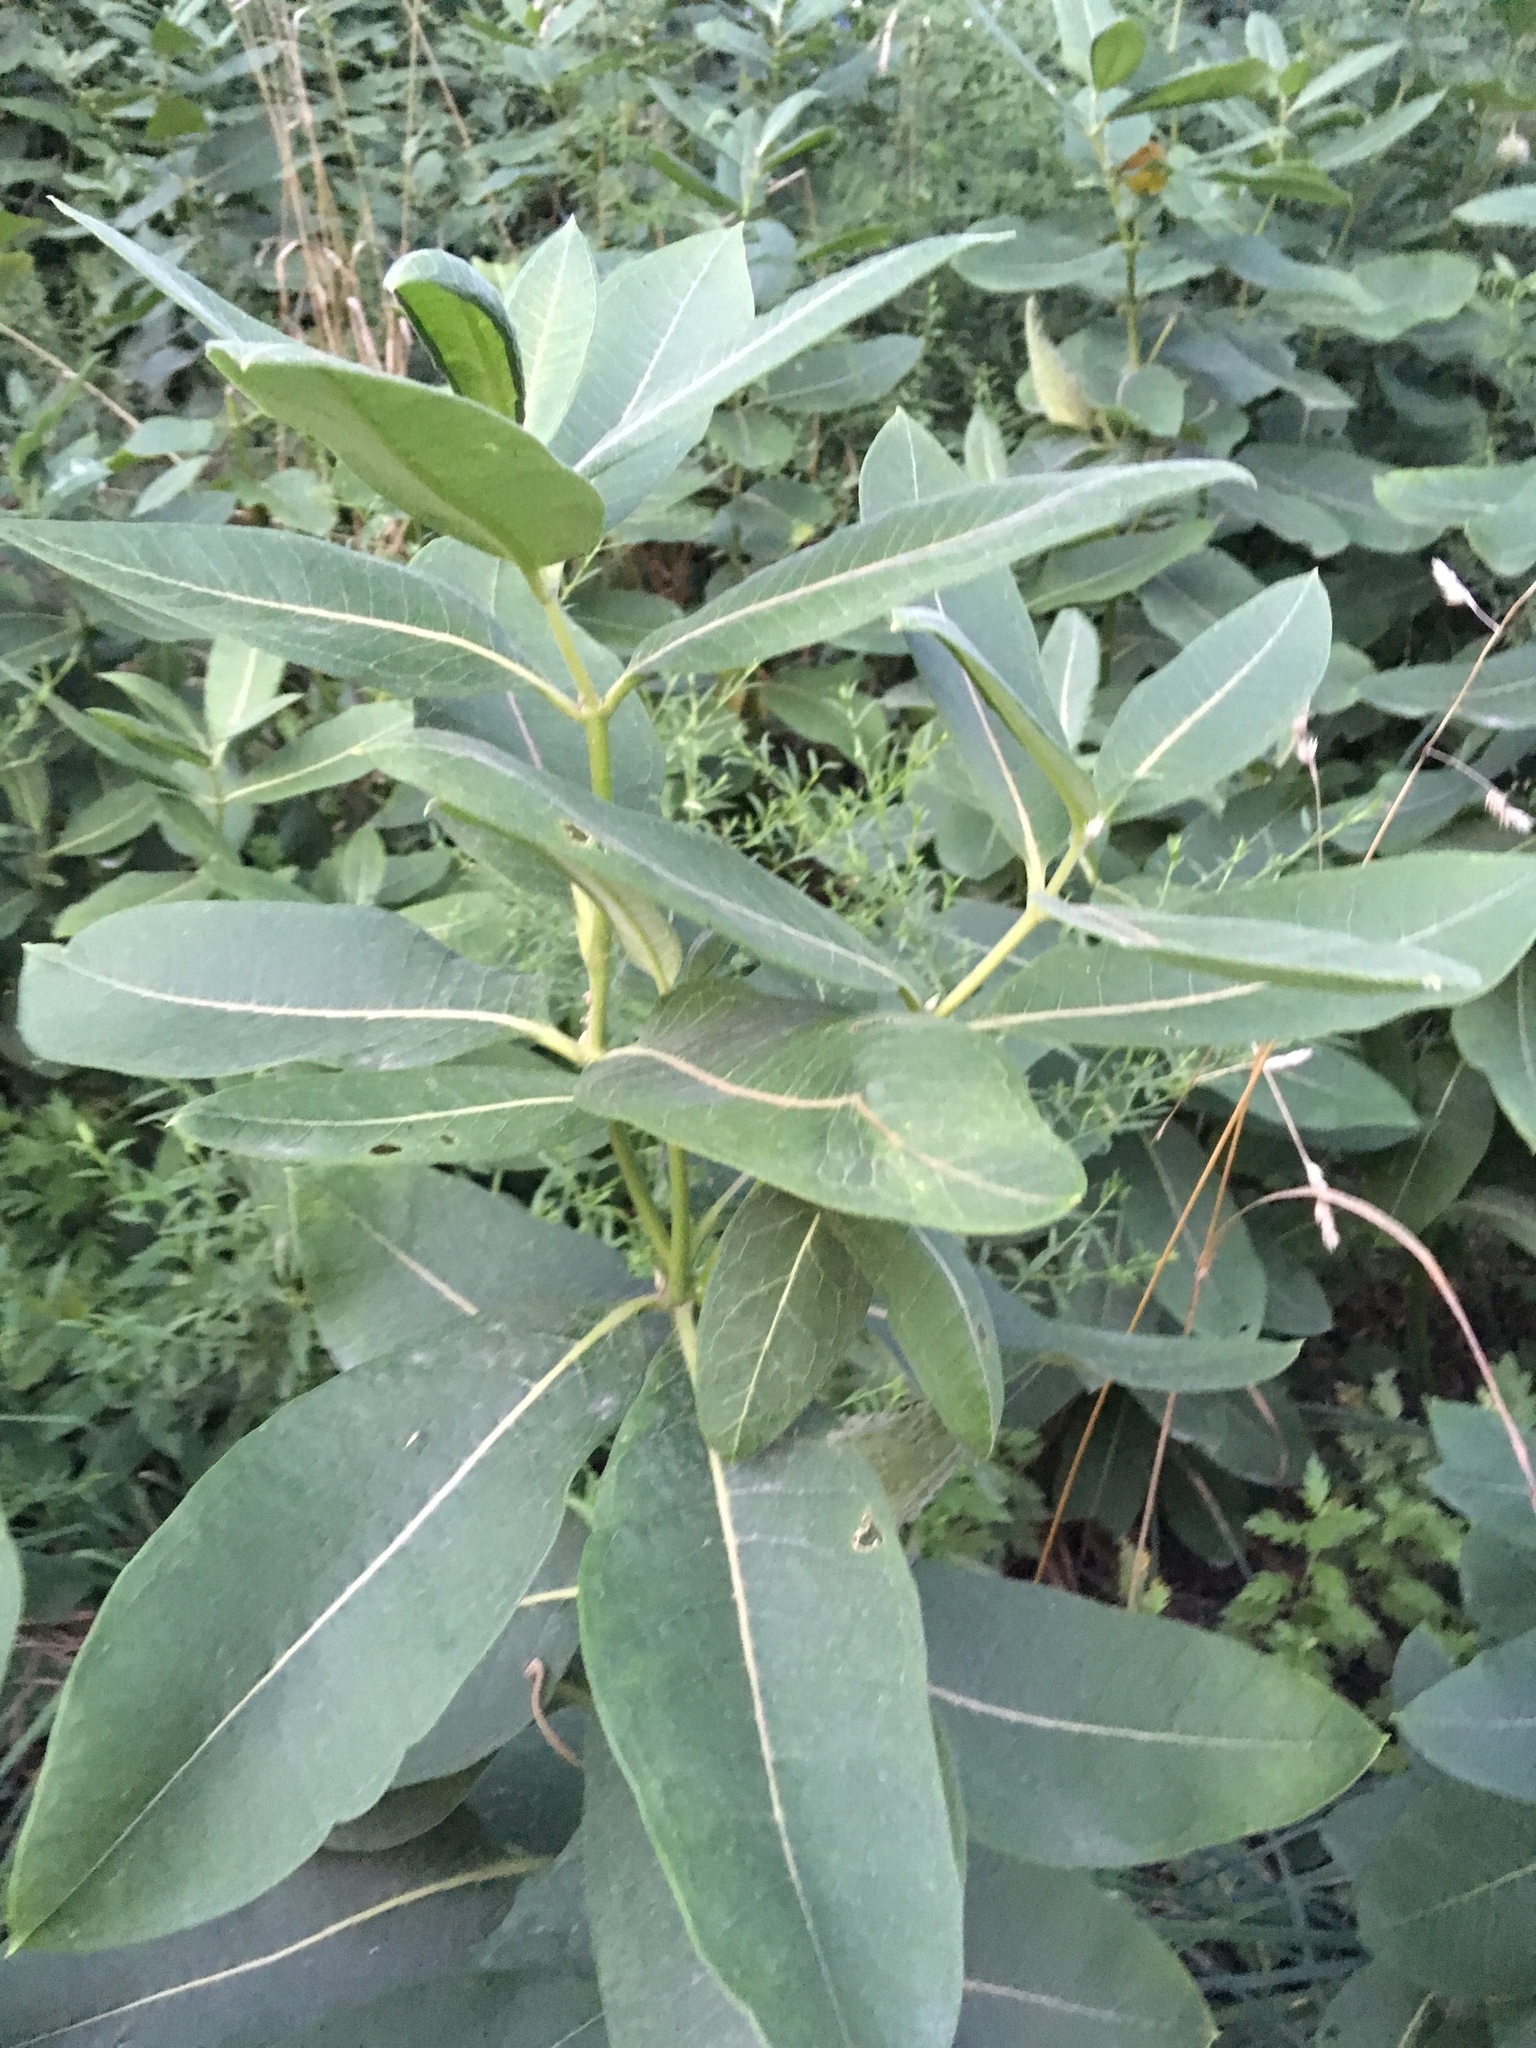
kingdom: Plantae
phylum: Tracheophyta
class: Magnoliopsida
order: Gentianales
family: Apocynaceae
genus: Asclepias
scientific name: Asclepias syriaca
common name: Common milkweed
